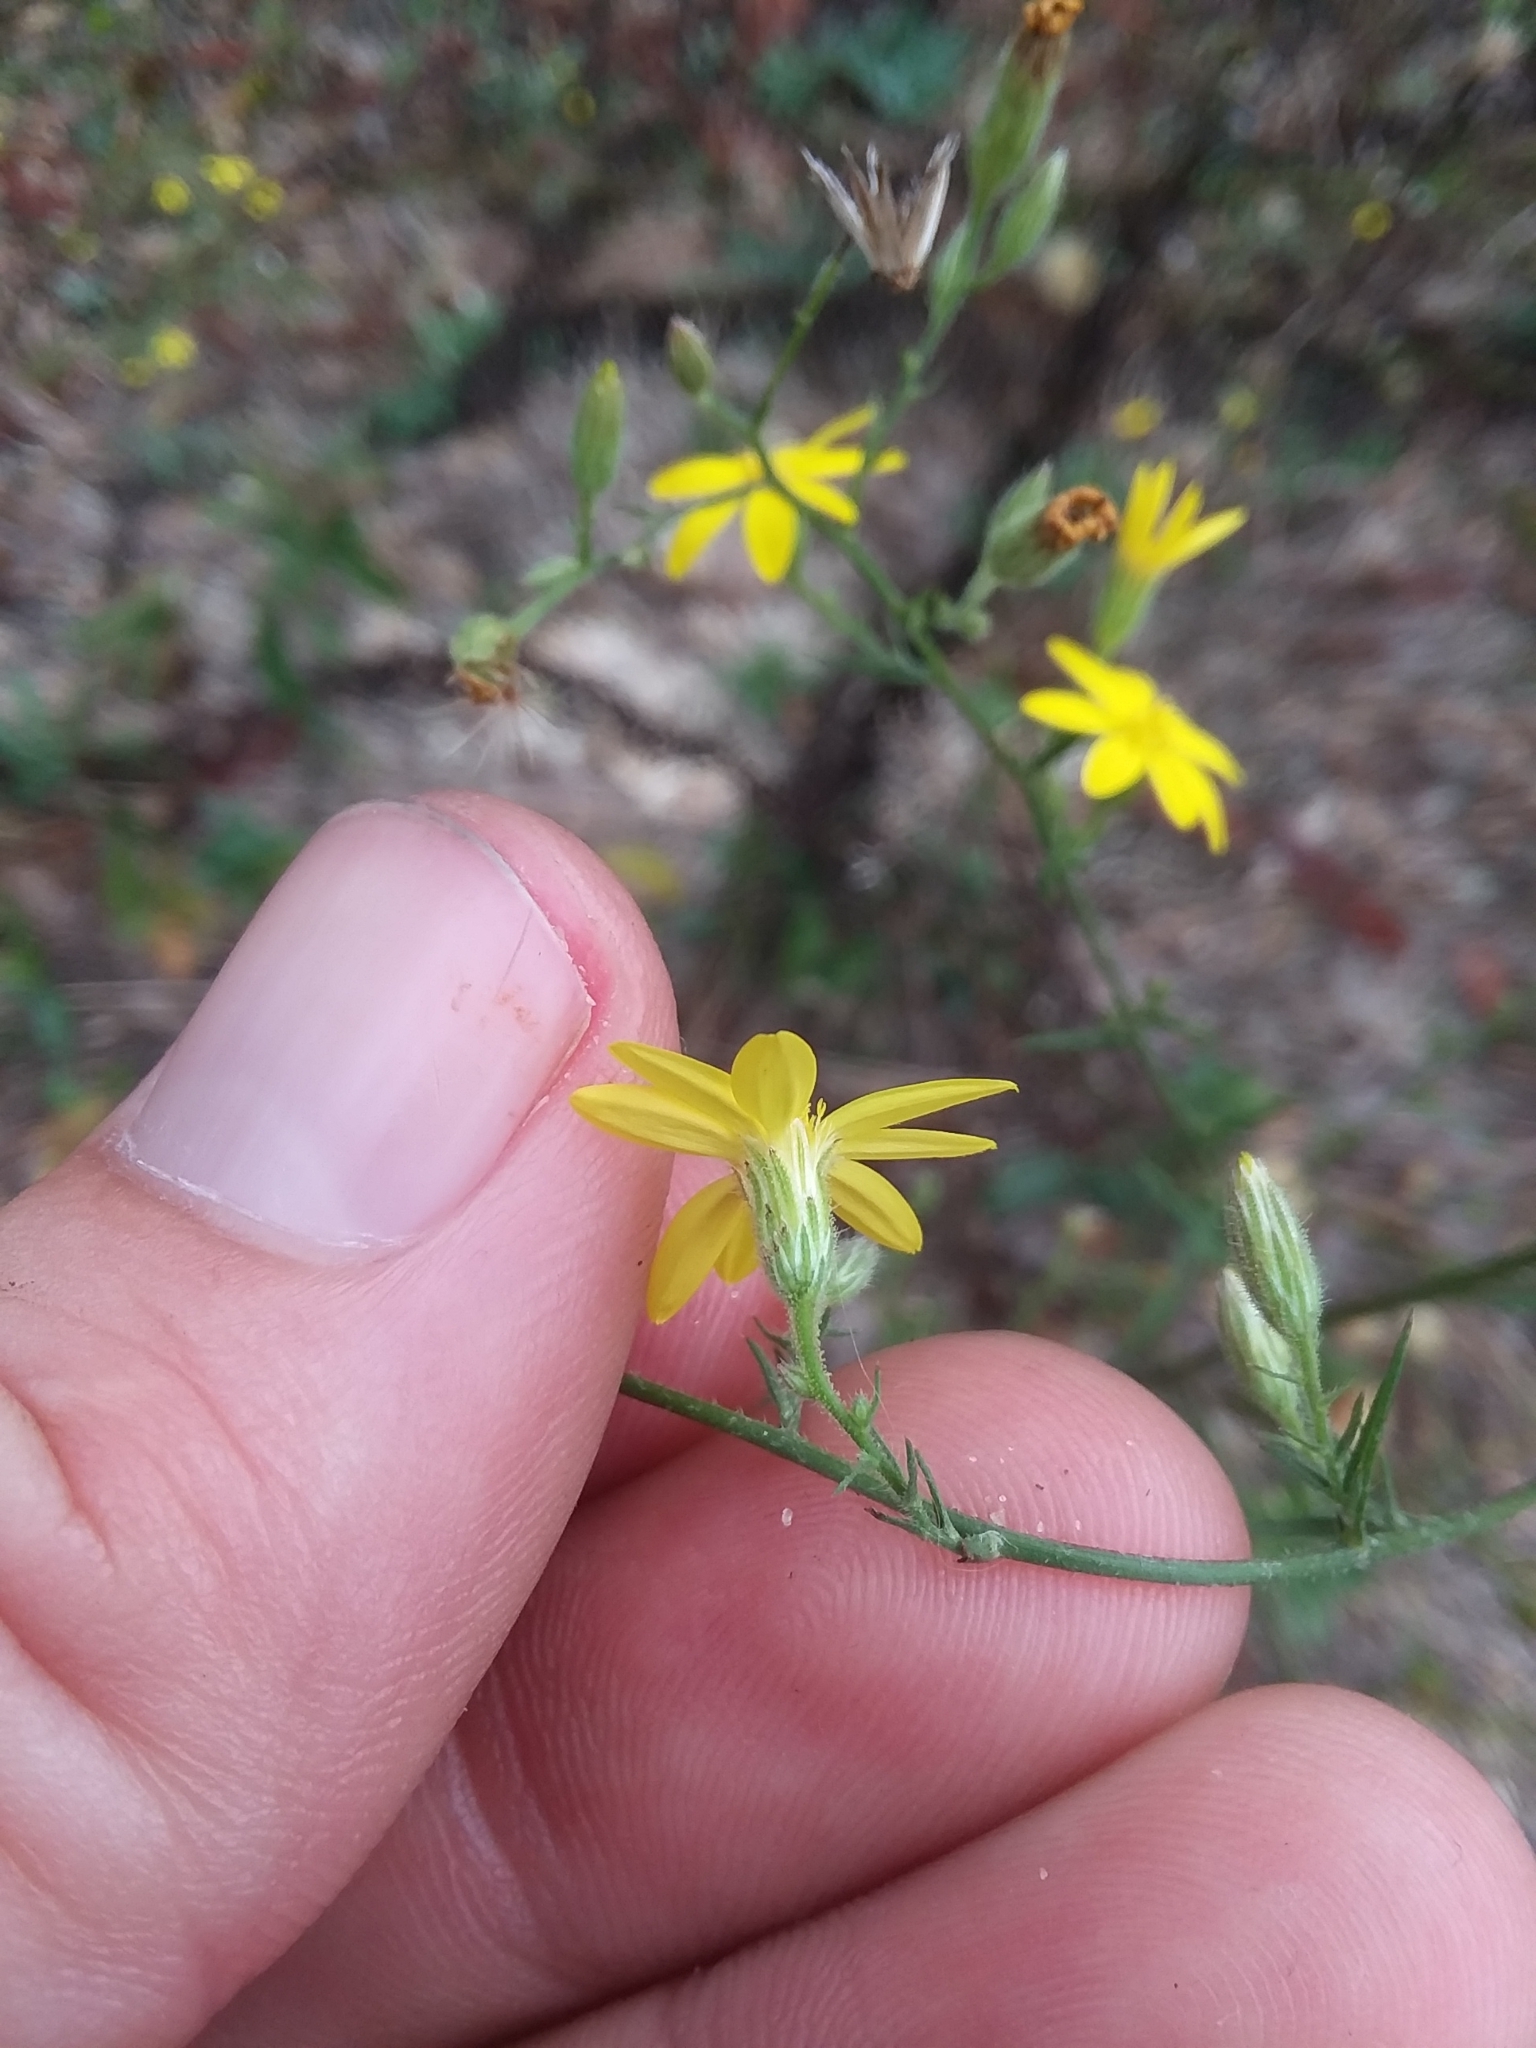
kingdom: Plantae
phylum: Tracheophyta
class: Magnoliopsida
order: Asterales
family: Asteraceae
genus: Croptilon
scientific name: Croptilon divaricatum
